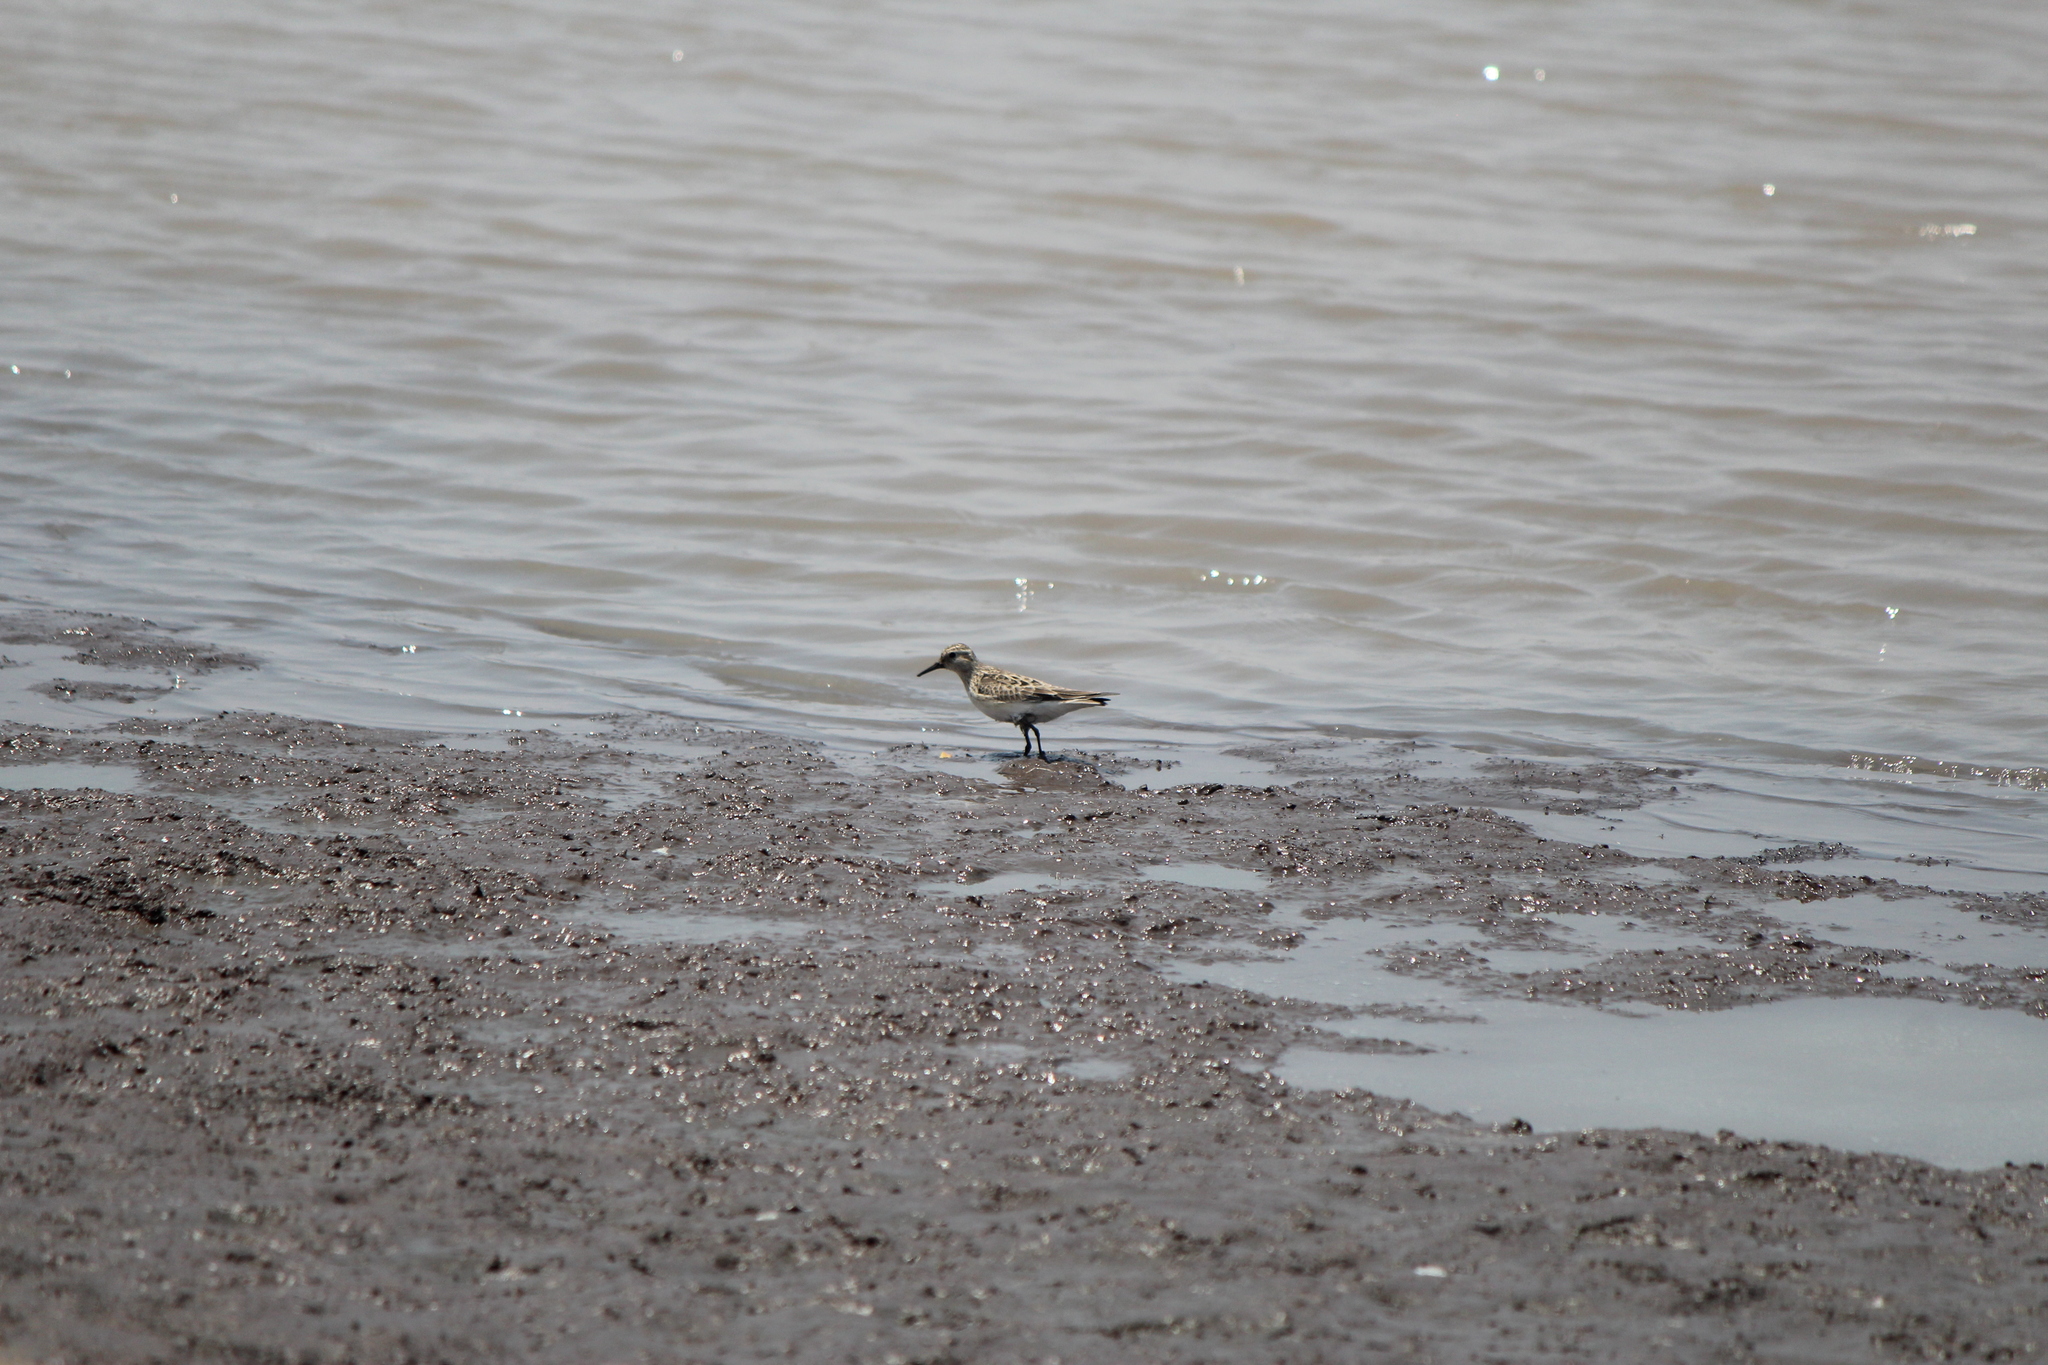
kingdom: Animalia
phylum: Chordata
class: Aves
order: Charadriiformes
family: Scolopacidae
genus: Calidris
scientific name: Calidris bairdii
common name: Baird's sandpiper
